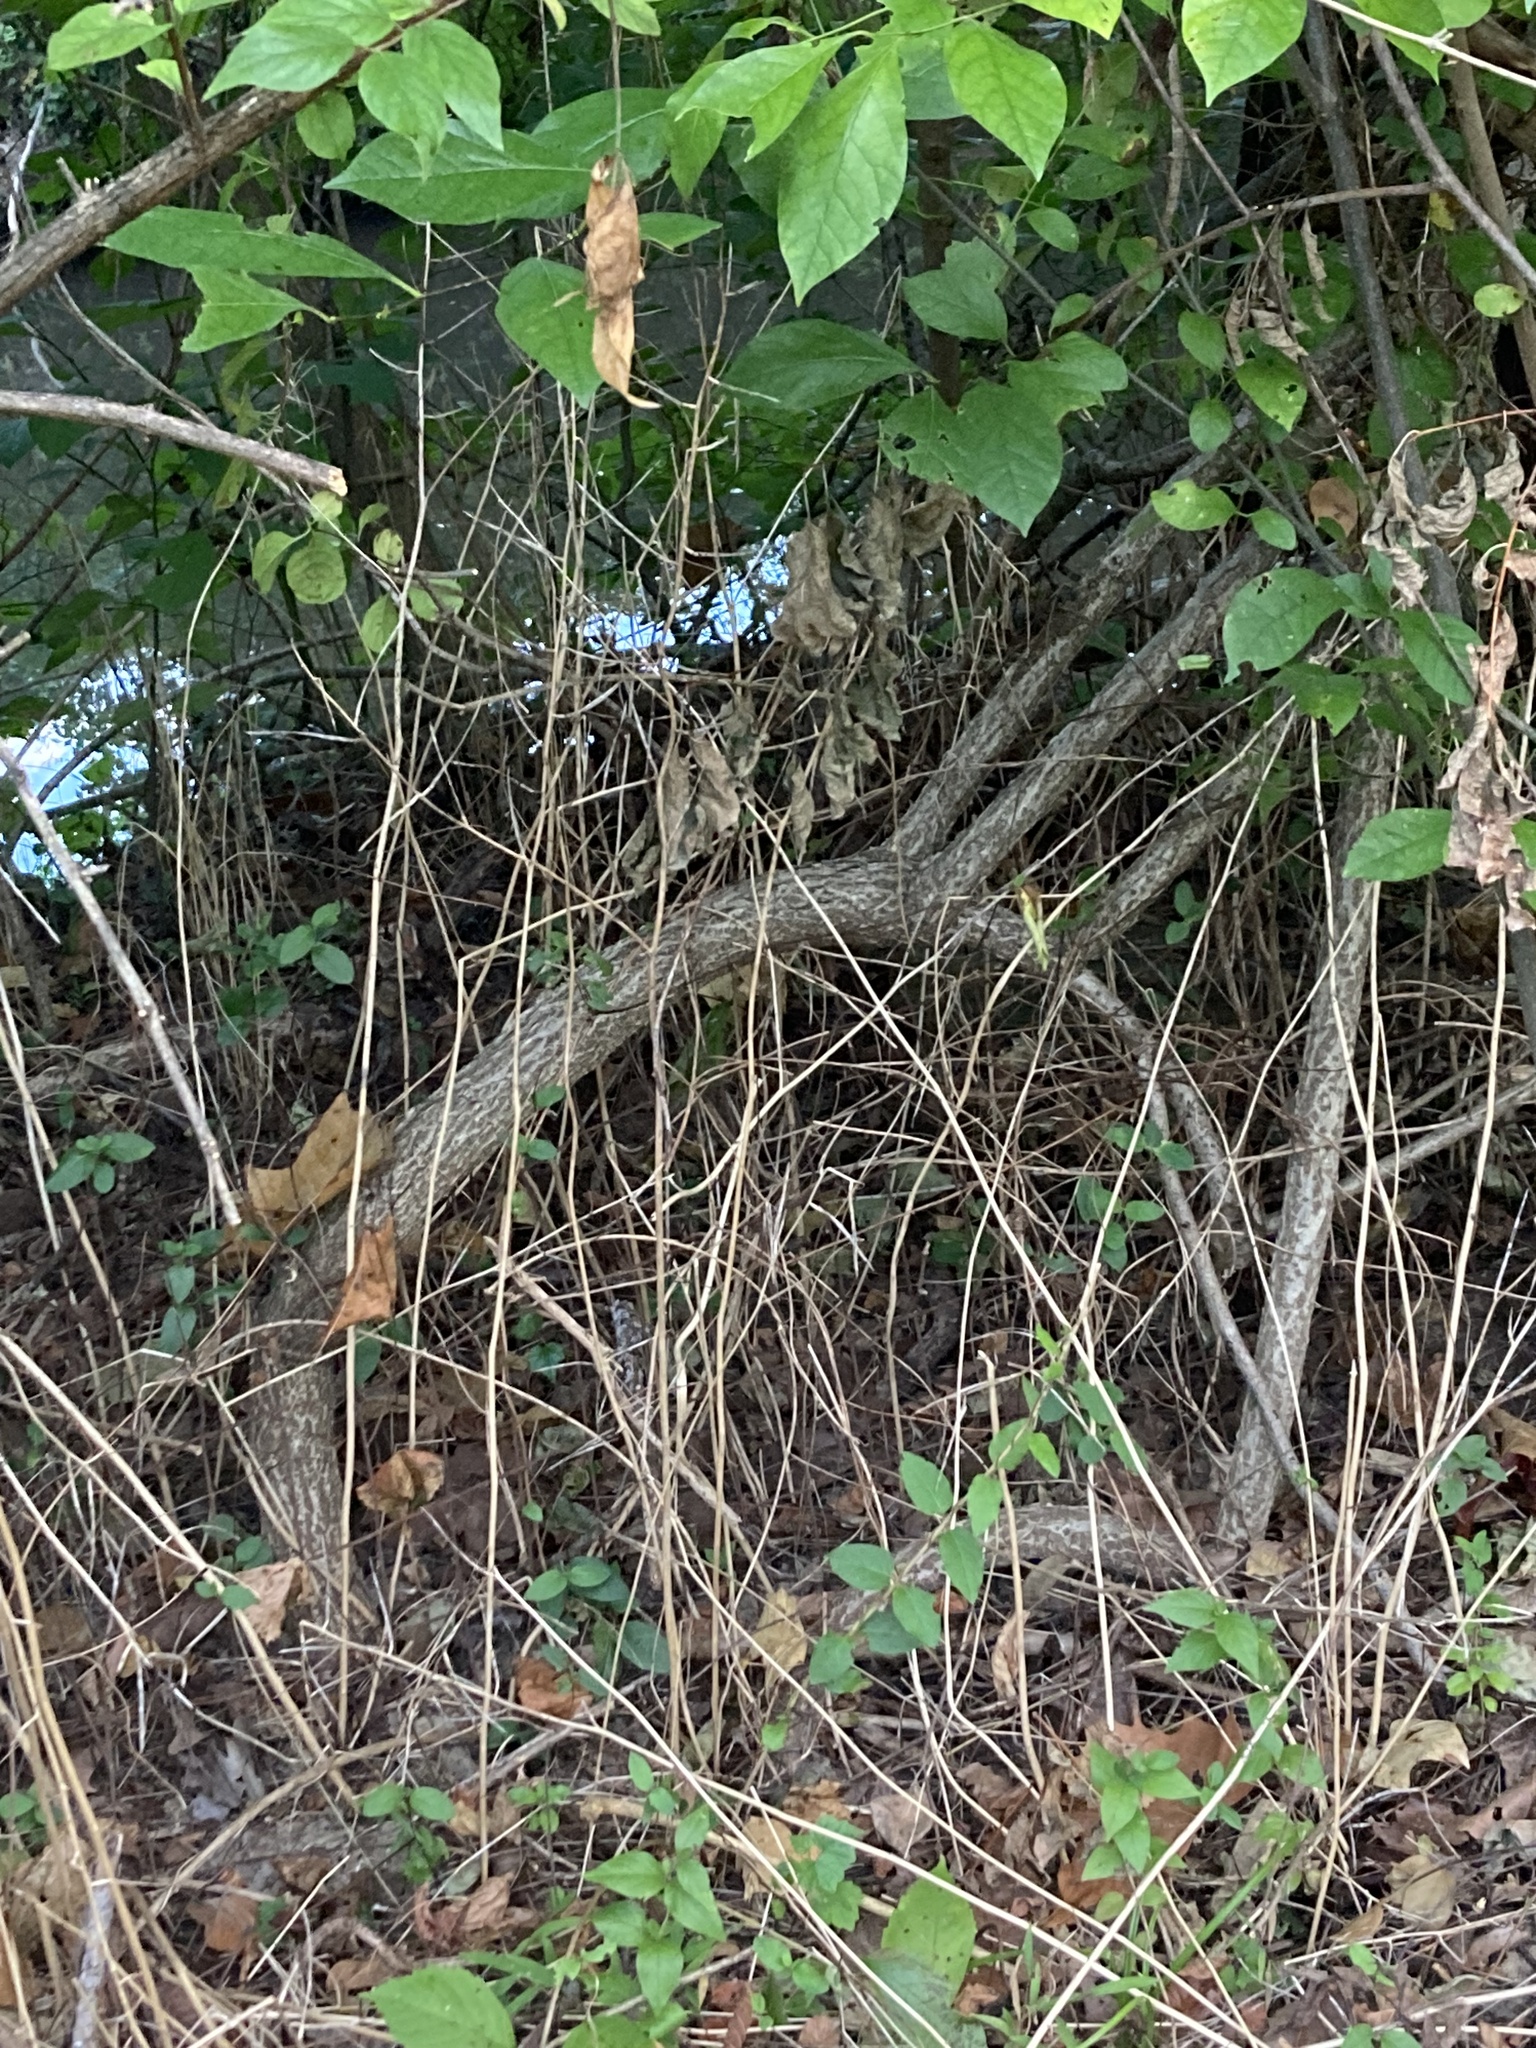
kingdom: Plantae
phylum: Tracheophyta
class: Magnoliopsida
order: Celastrales
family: Celastraceae
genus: Celastrus
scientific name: Celastrus orbiculatus
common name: Oriental bittersweet
